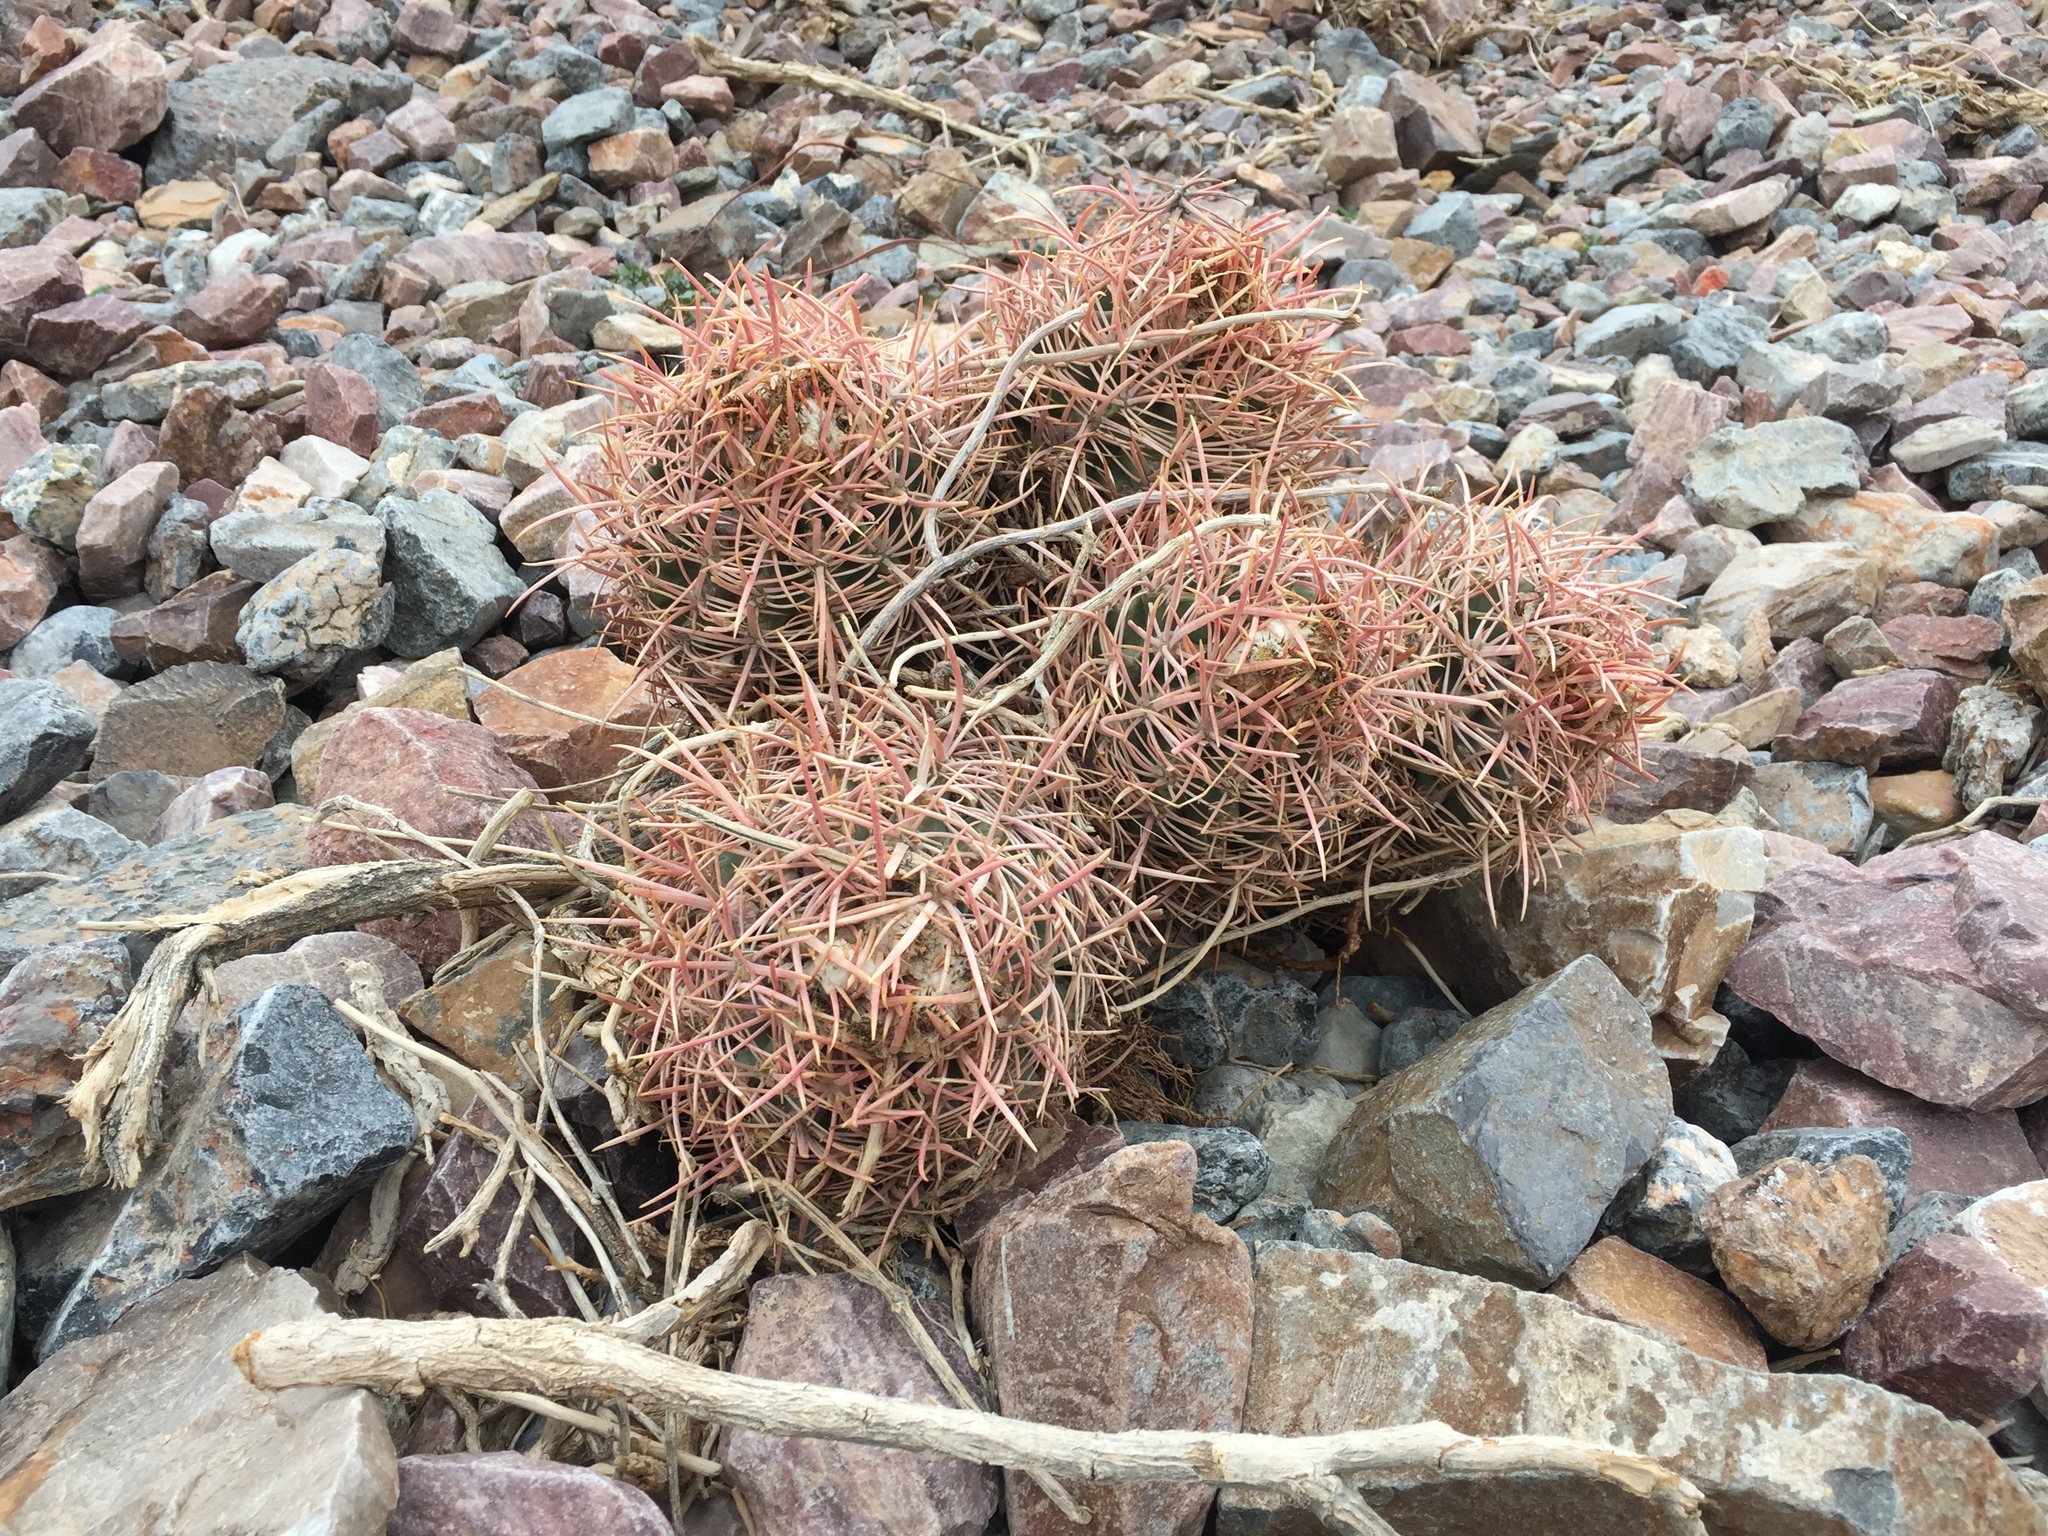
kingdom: Plantae
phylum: Tracheophyta
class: Magnoliopsida
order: Caryophyllales
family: Cactaceae
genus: Echinocactus
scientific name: Echinocactus polycephalus
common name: Cottontop cactus
